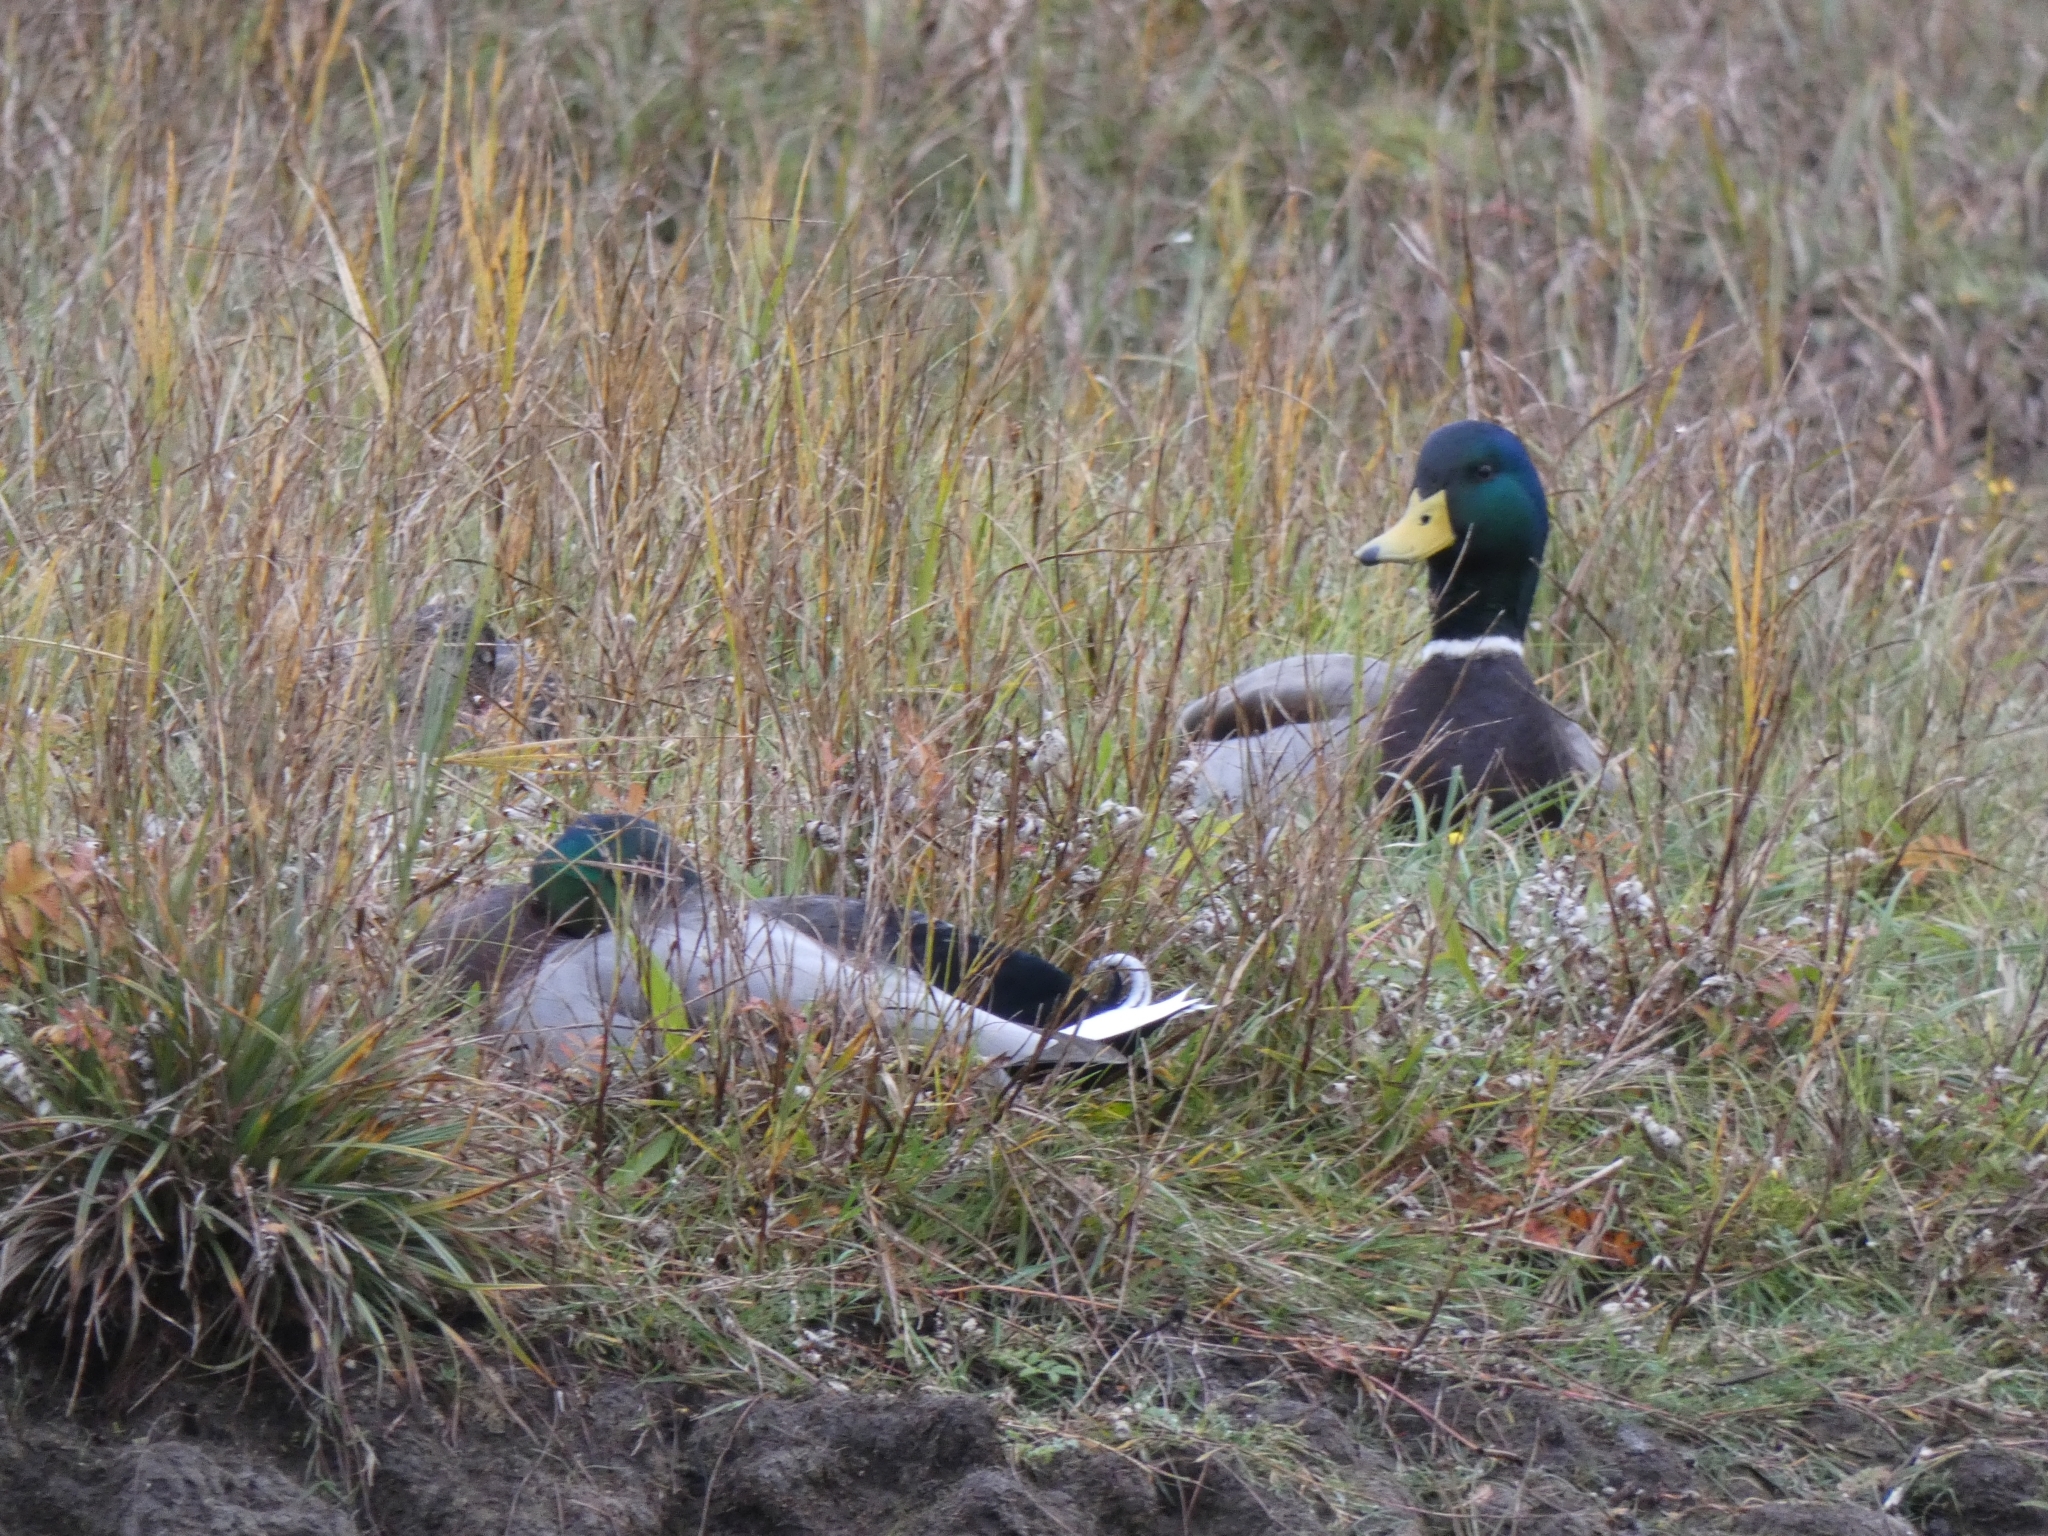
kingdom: Animalia
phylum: Chordata
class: Aves
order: Anseriformes
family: Anatidae
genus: Anas
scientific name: Anas platyrhynchos
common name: Mallard
